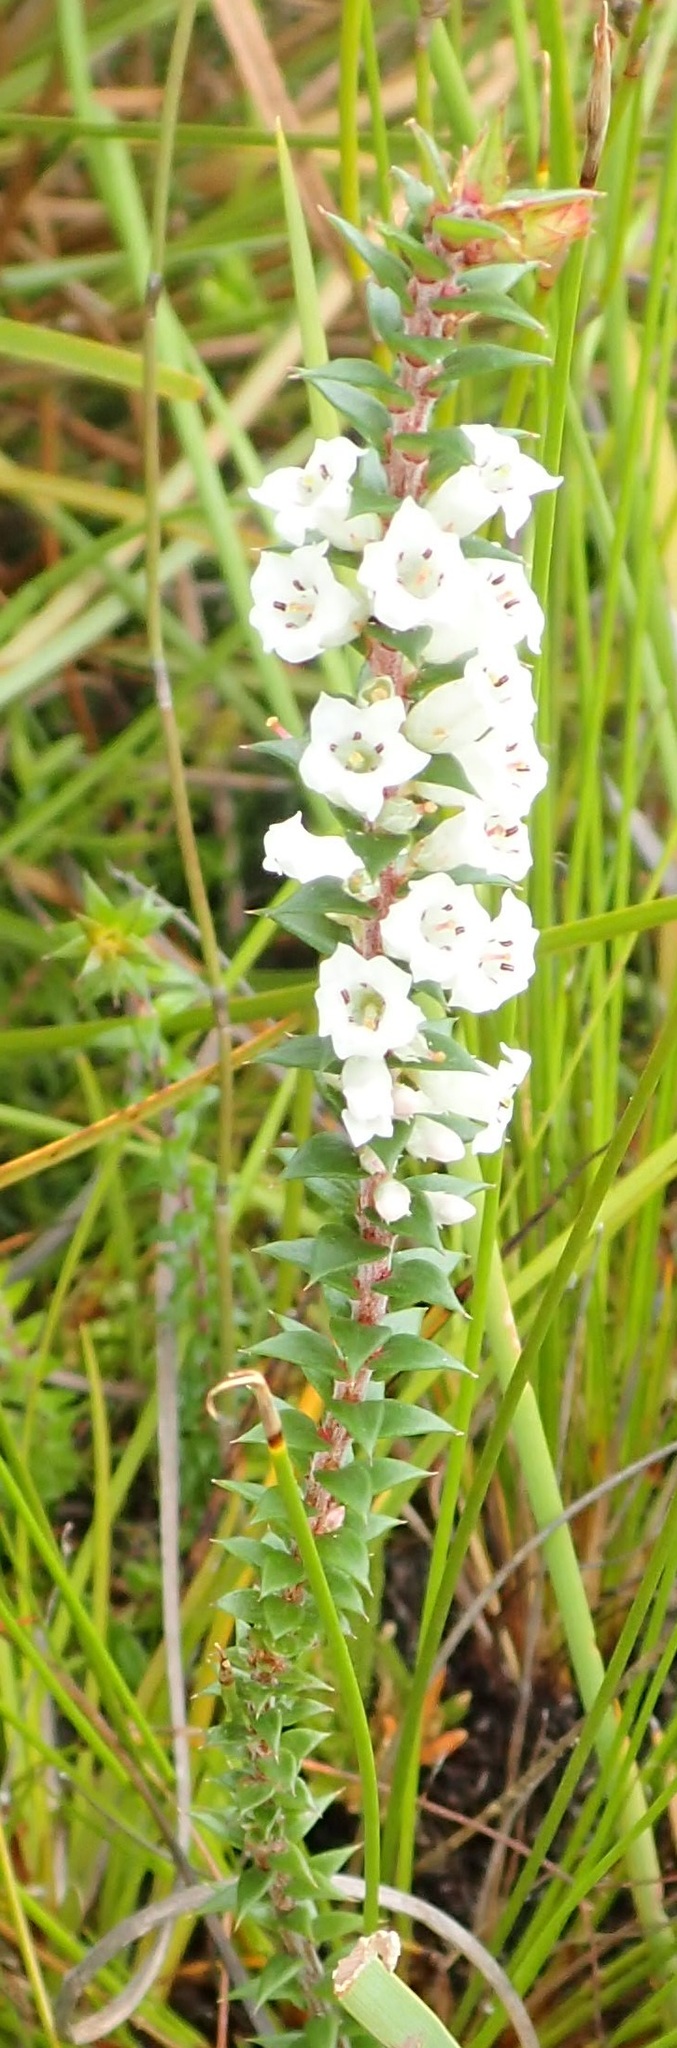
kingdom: Plantae
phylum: Tracheophyta
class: Magnoliopsida
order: Ericales
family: Ericaceae
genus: Epacris
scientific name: Epacris impressa
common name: Common-heath
